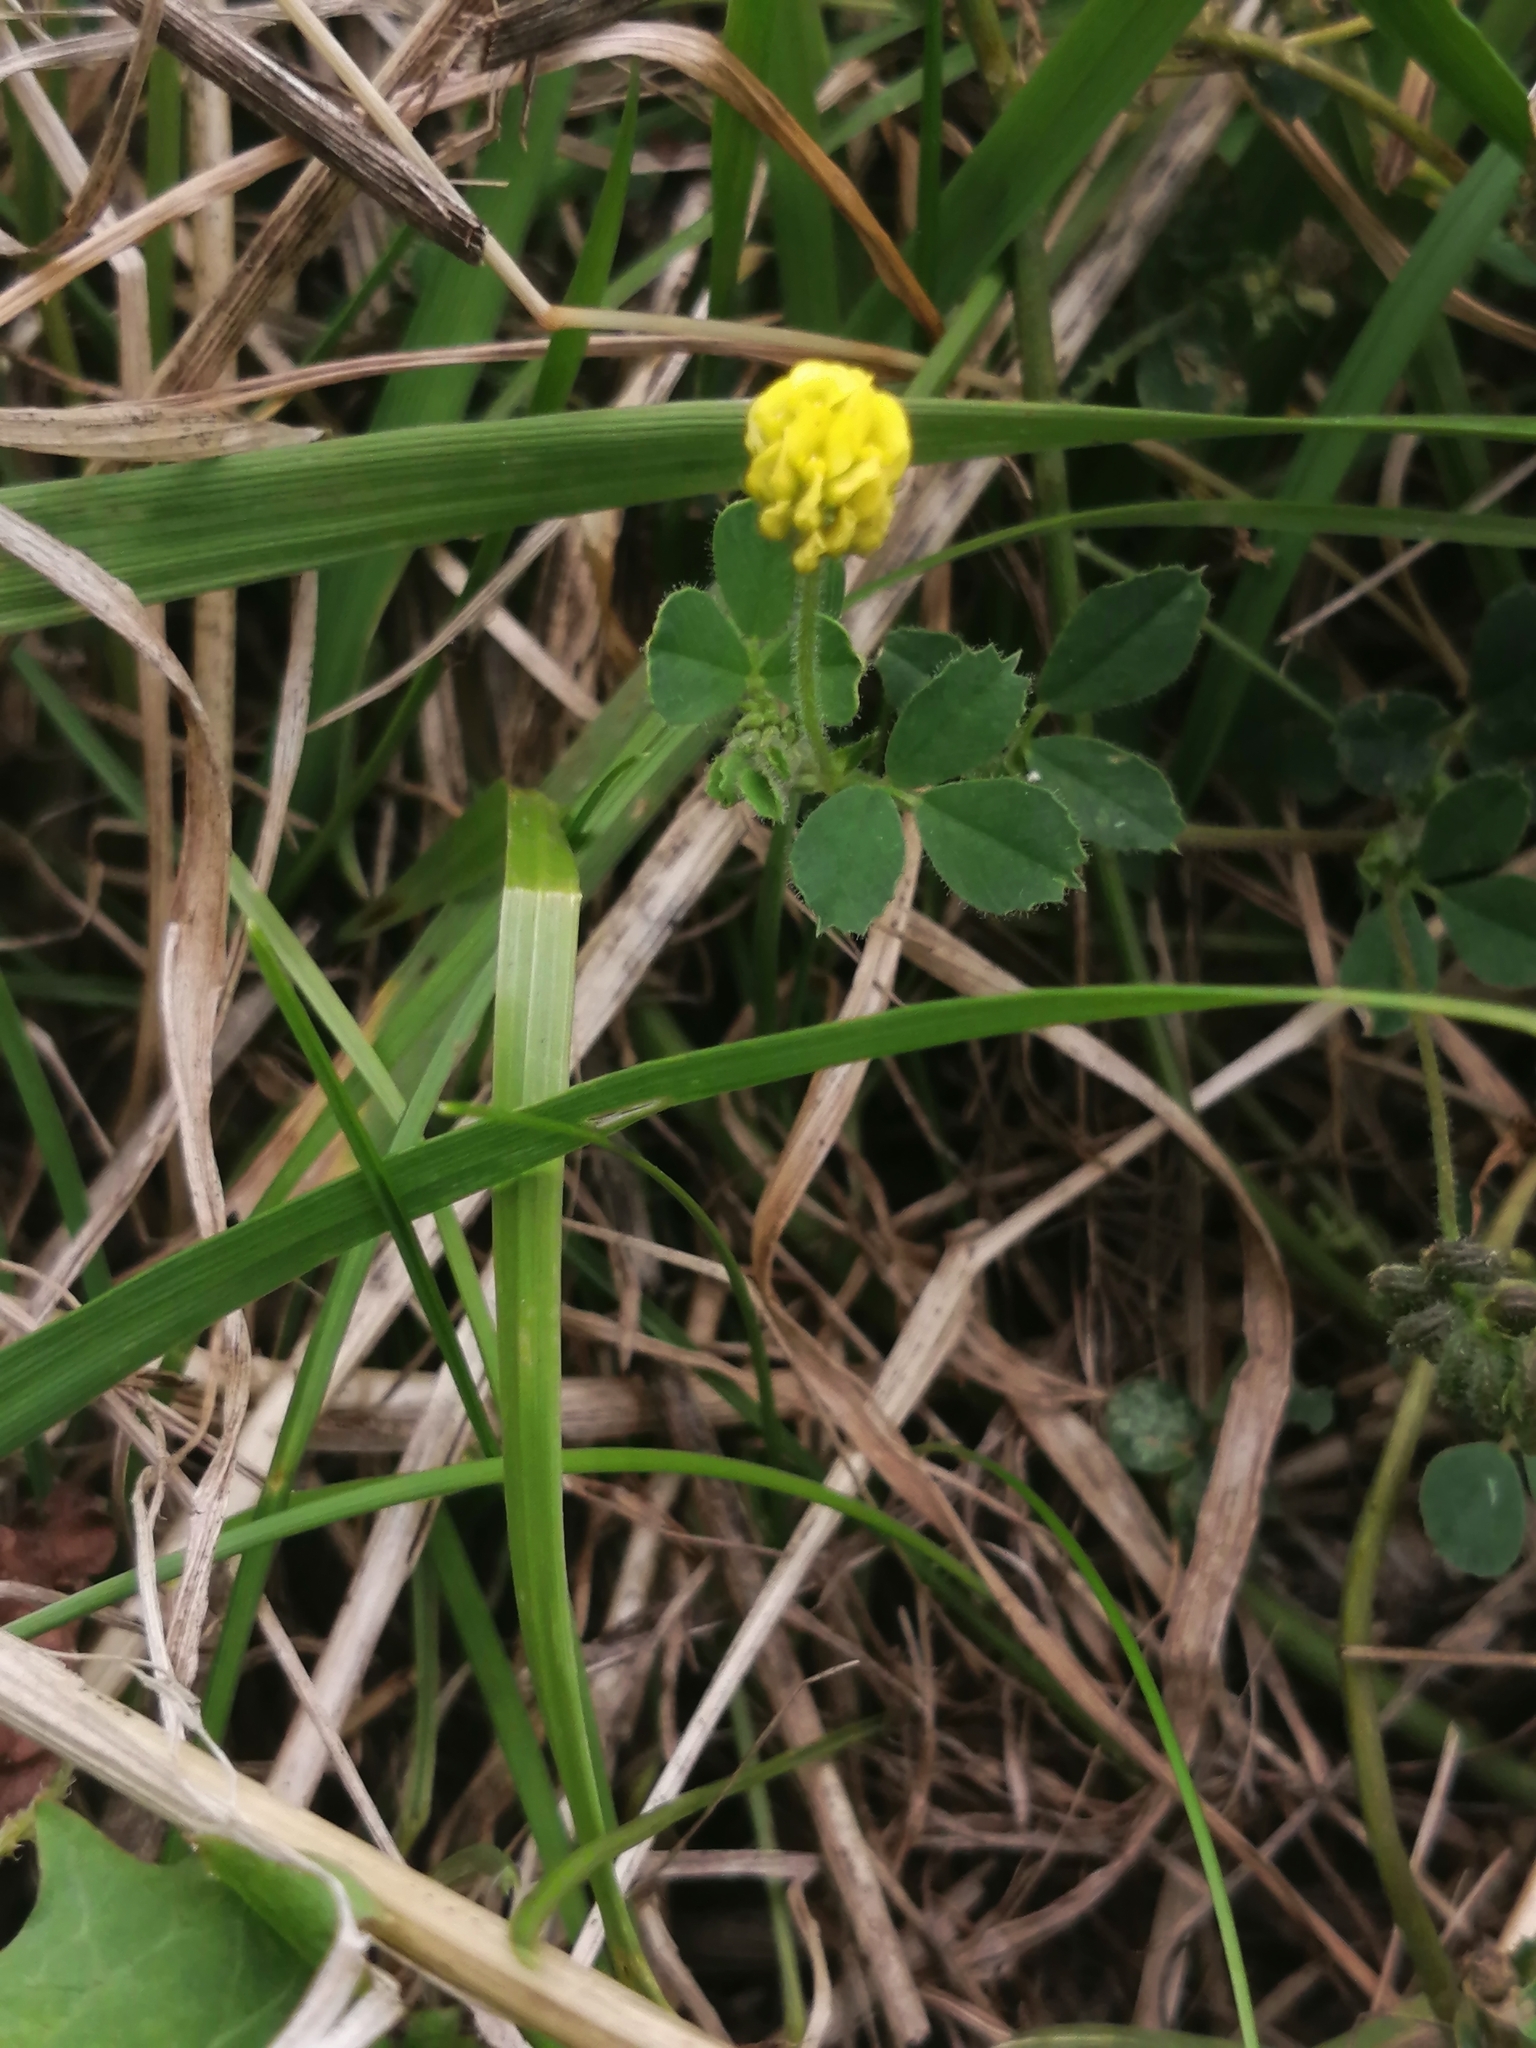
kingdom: Plantae
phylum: Tracheophyta
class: Magnoliopsida
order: Fabales
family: Fabaceae
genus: Medicago
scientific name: Medicago lupulina
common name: Black medick
